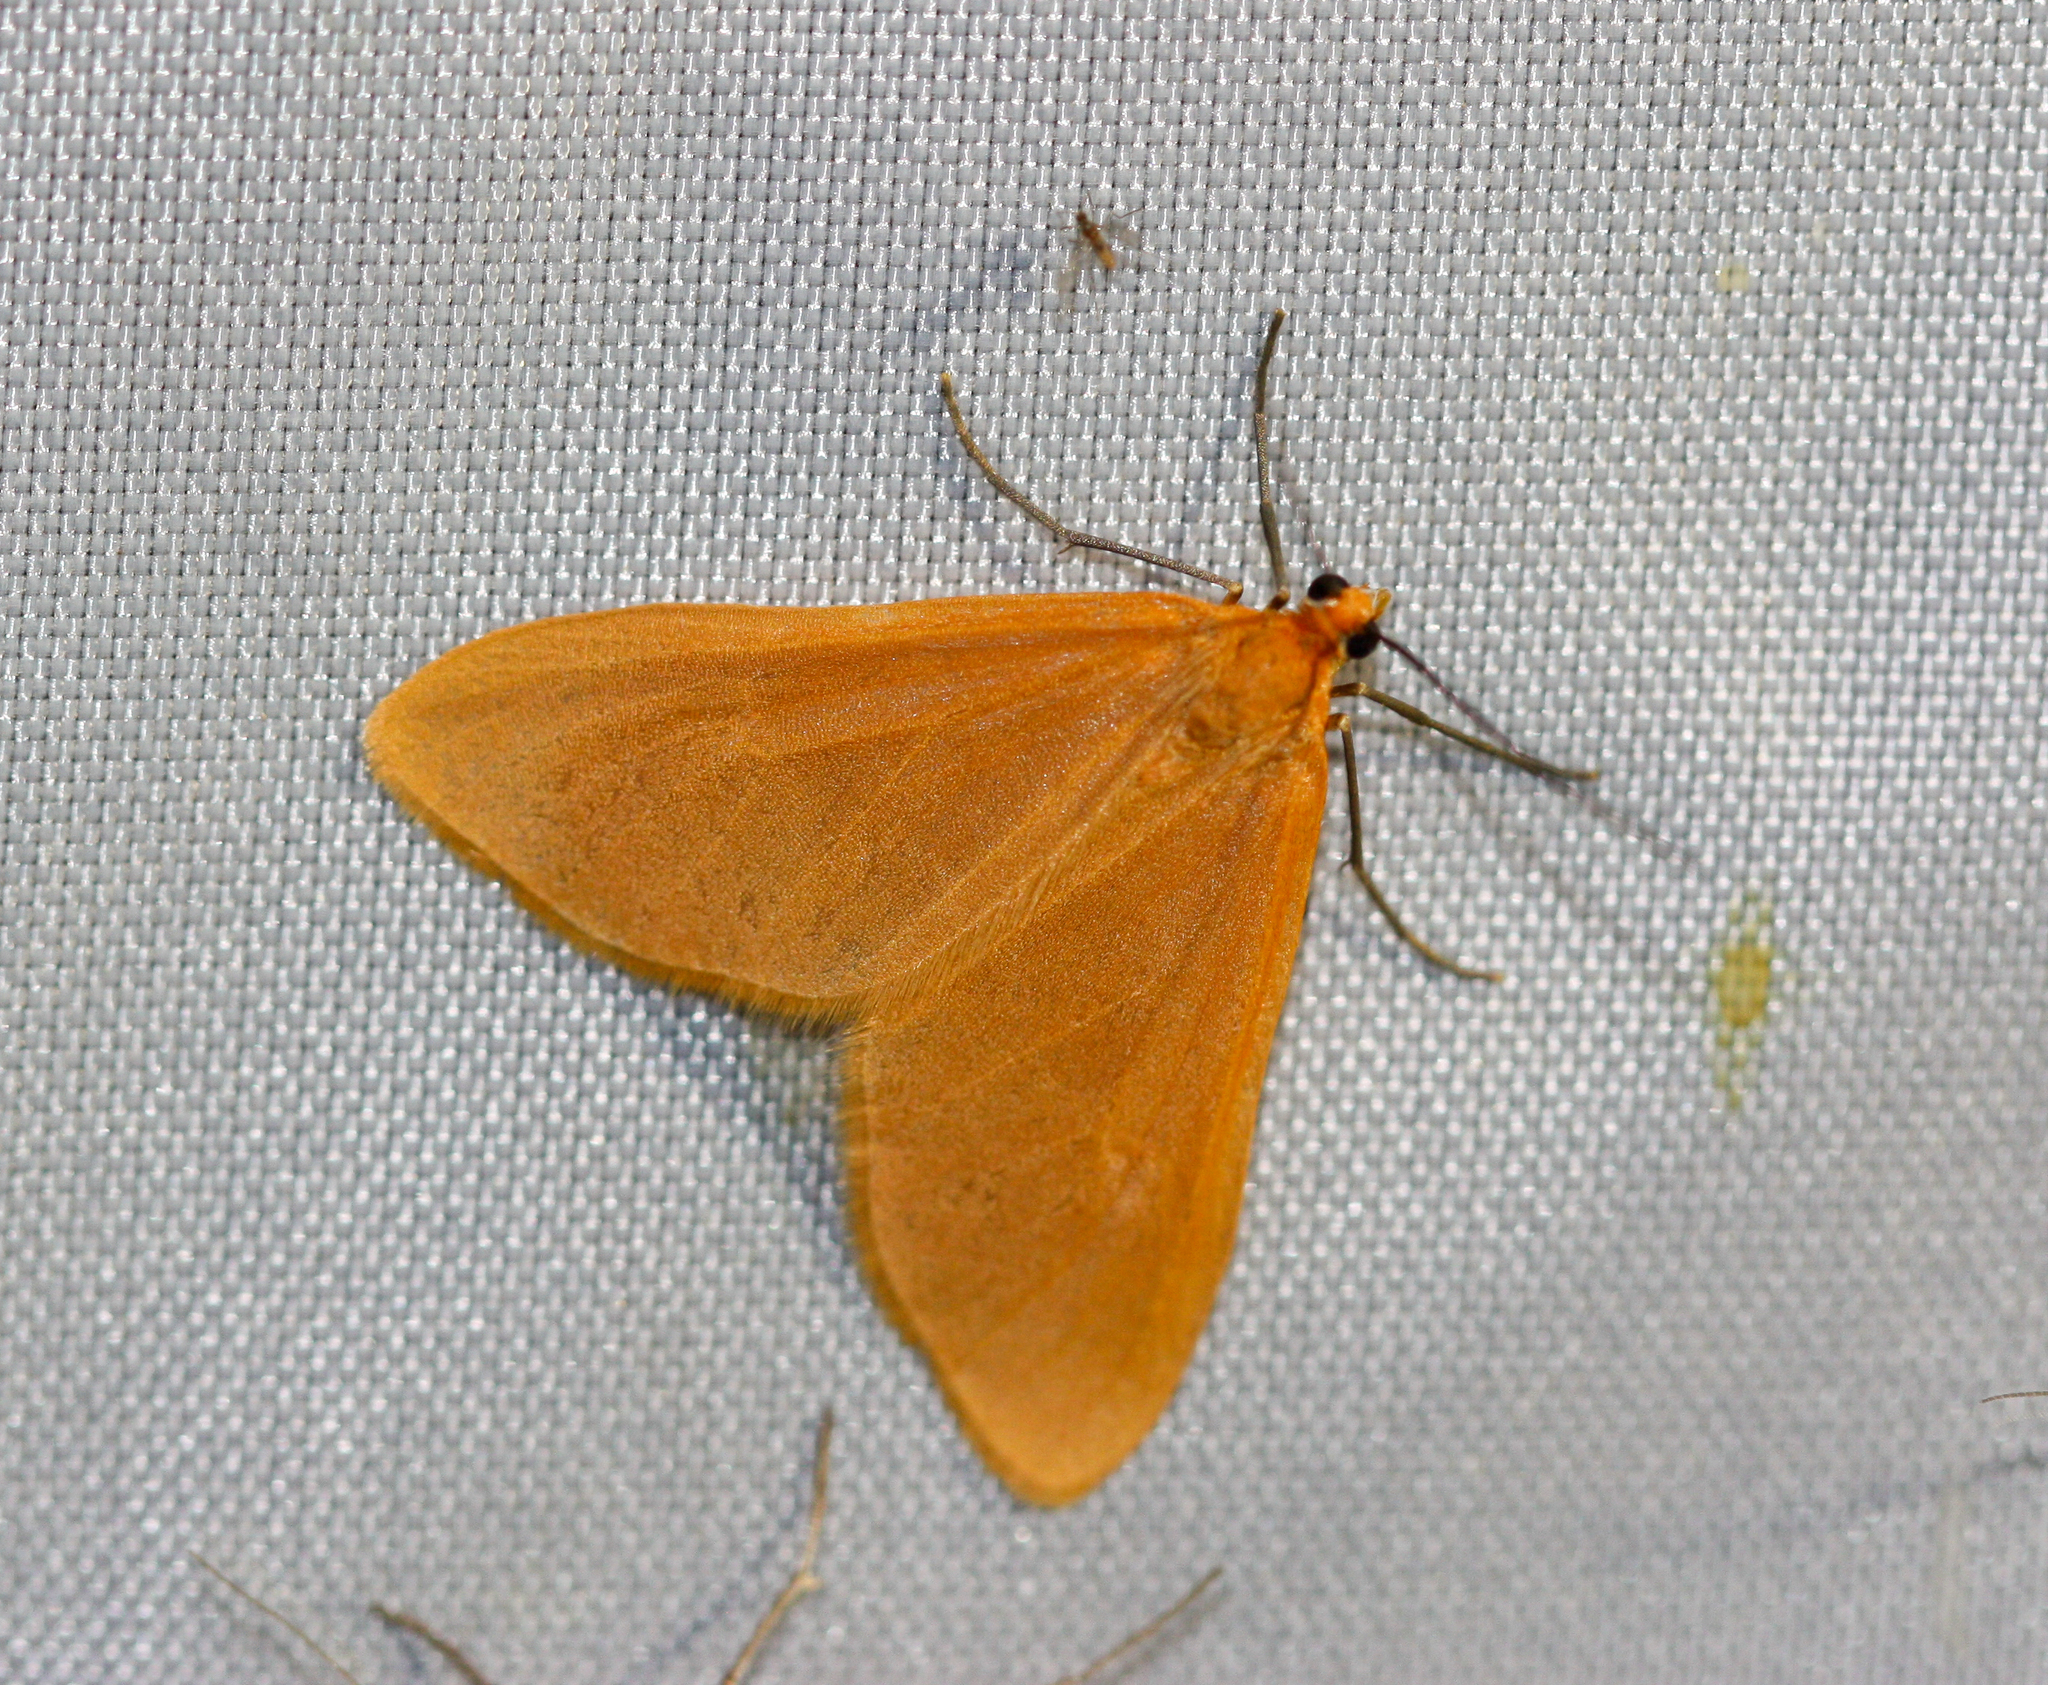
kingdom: Animalia
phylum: Arthropoda
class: Insecta
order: Lepidoptera
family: Geometridae
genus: Eubaphe
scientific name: Eubaphe unicolor
